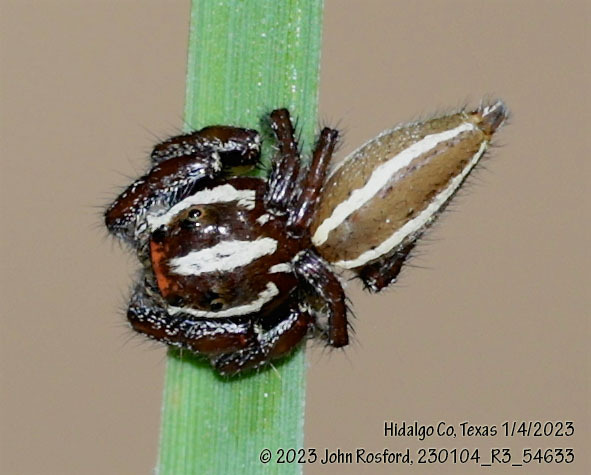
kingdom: Animalia
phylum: Arthropoda
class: Arachnida
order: Araneae
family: Salticidae
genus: Colonus
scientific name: Colonus puerperus
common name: Jumping spiders
